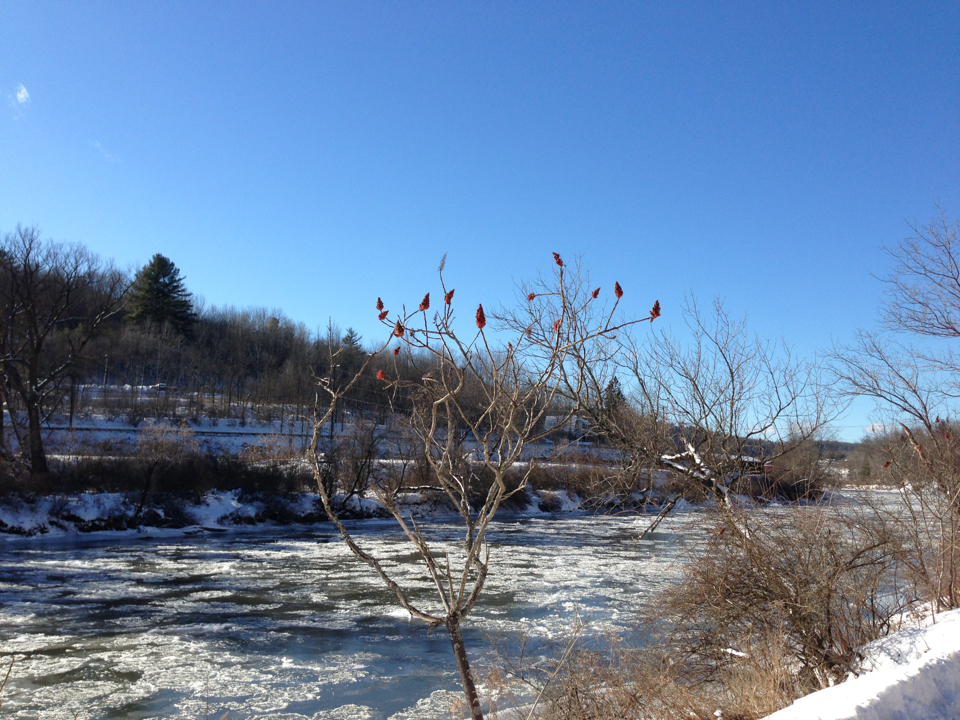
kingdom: Plantae
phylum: Tracheophyta
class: Magnoliopsida
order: Sapindales
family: Anacardiaceae
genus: Rhus
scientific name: Rhus typhina
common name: Staghorn sumac
